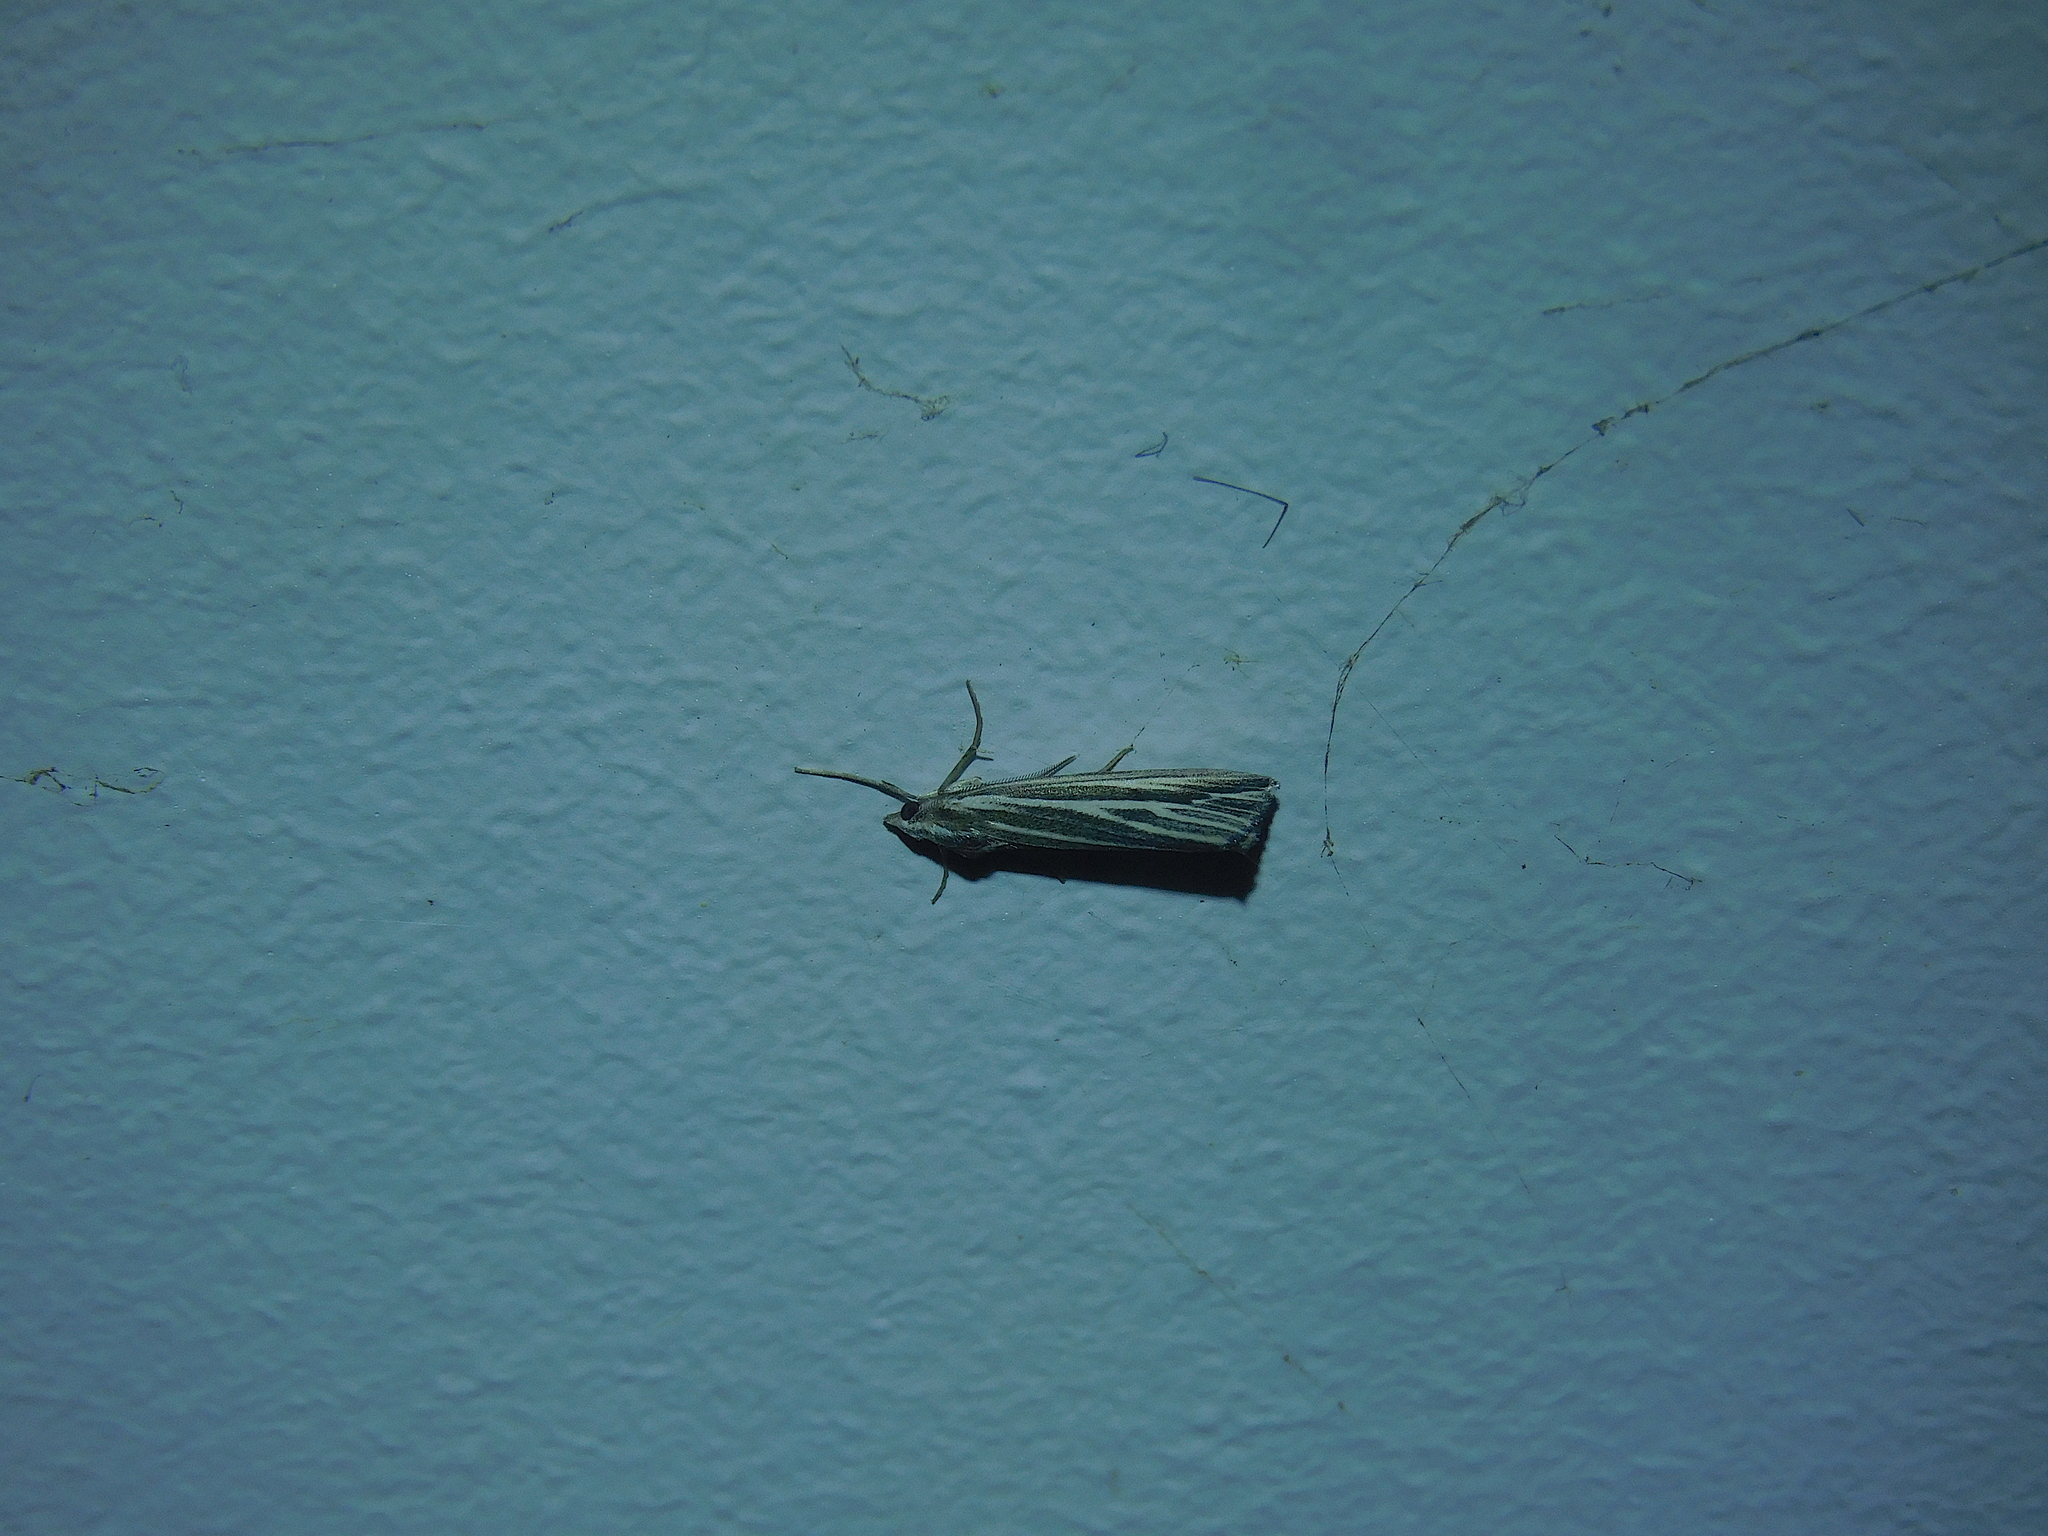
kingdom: Animalia
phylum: Arthropoda
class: Insecta
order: Lepidoptera
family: Geometridae
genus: Rhynchopsota
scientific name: Rhynchopsota delogramma
